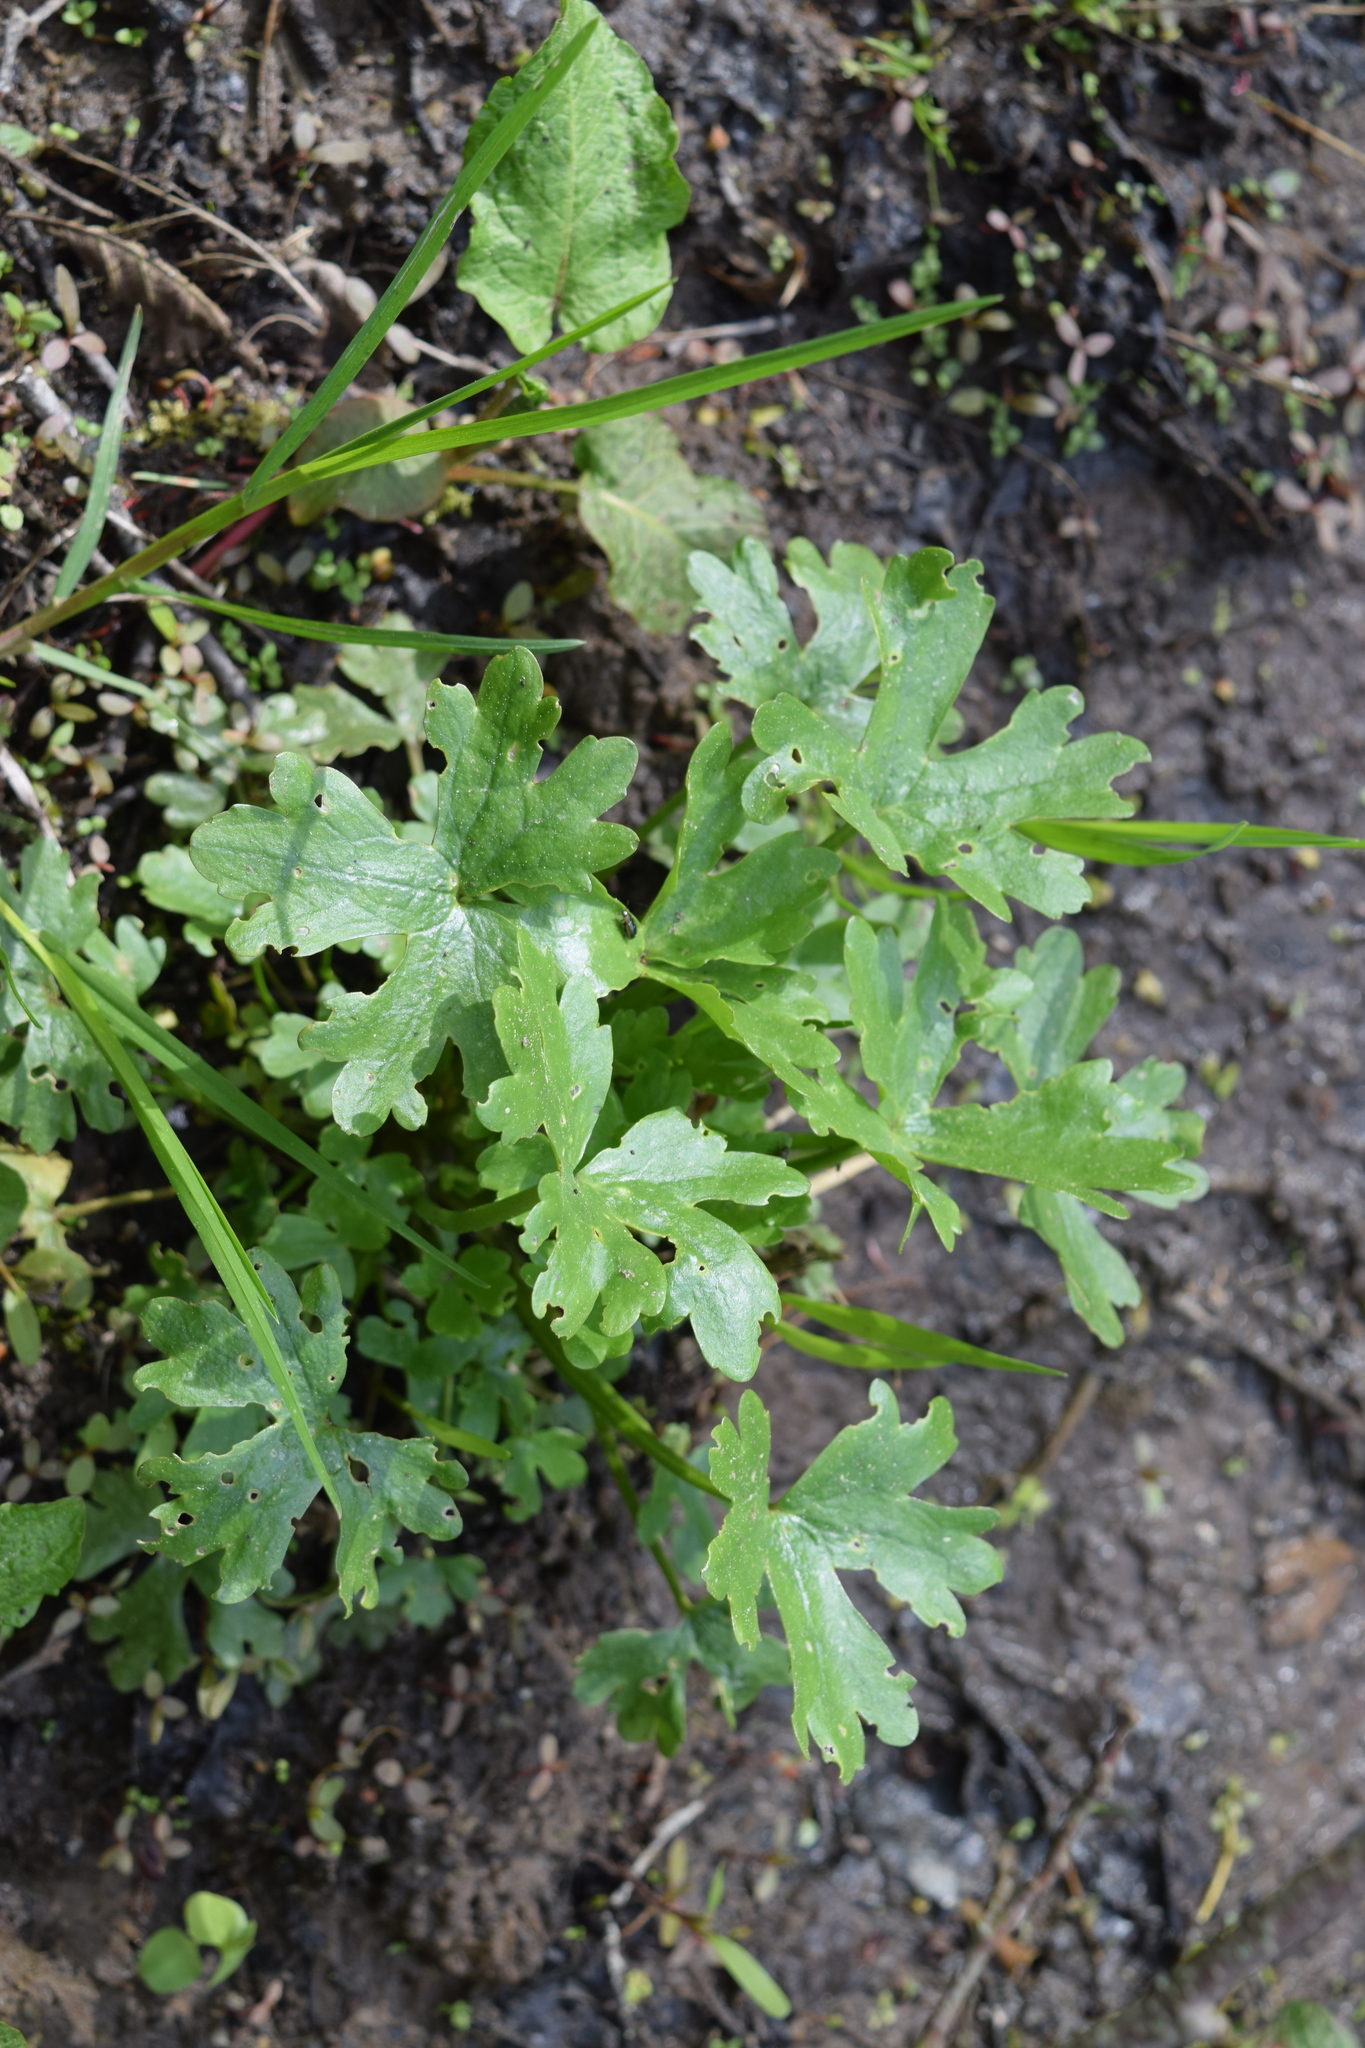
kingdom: Plantae
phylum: Tracheophyta
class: Magnoliopsida
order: Ranunculales
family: Ranunculaceae
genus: Ranunculus
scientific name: Ranunculus sceleratus
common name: Celery-leaved buttercup
